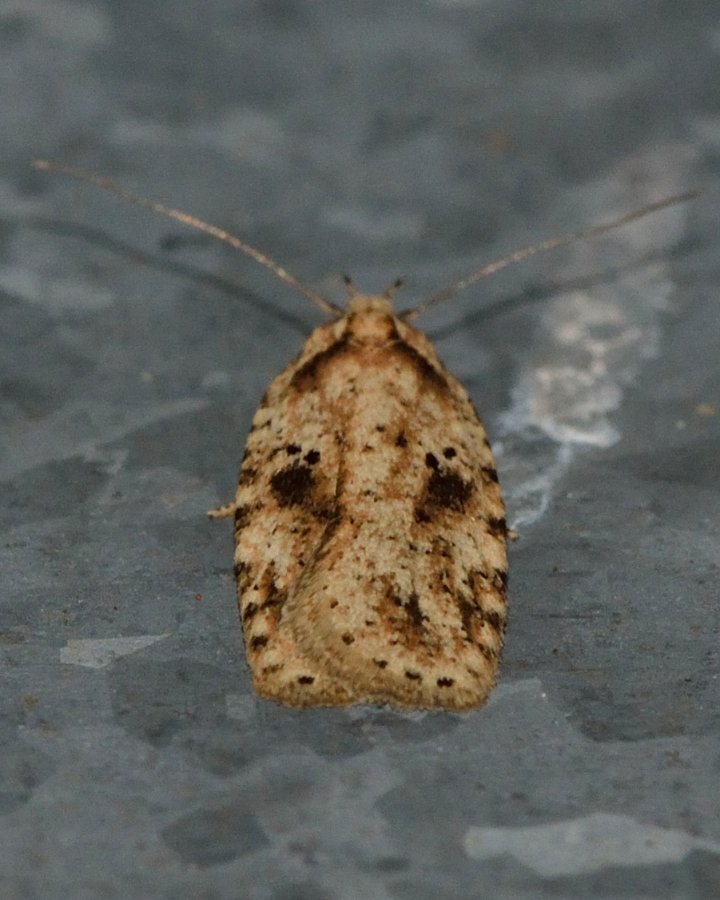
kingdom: Animalia
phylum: Arthropoda
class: Insecta
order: Lepidoptera
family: Depressariidae
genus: Agonopterix
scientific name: Agonopterix arenella
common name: Brindled flat-body
